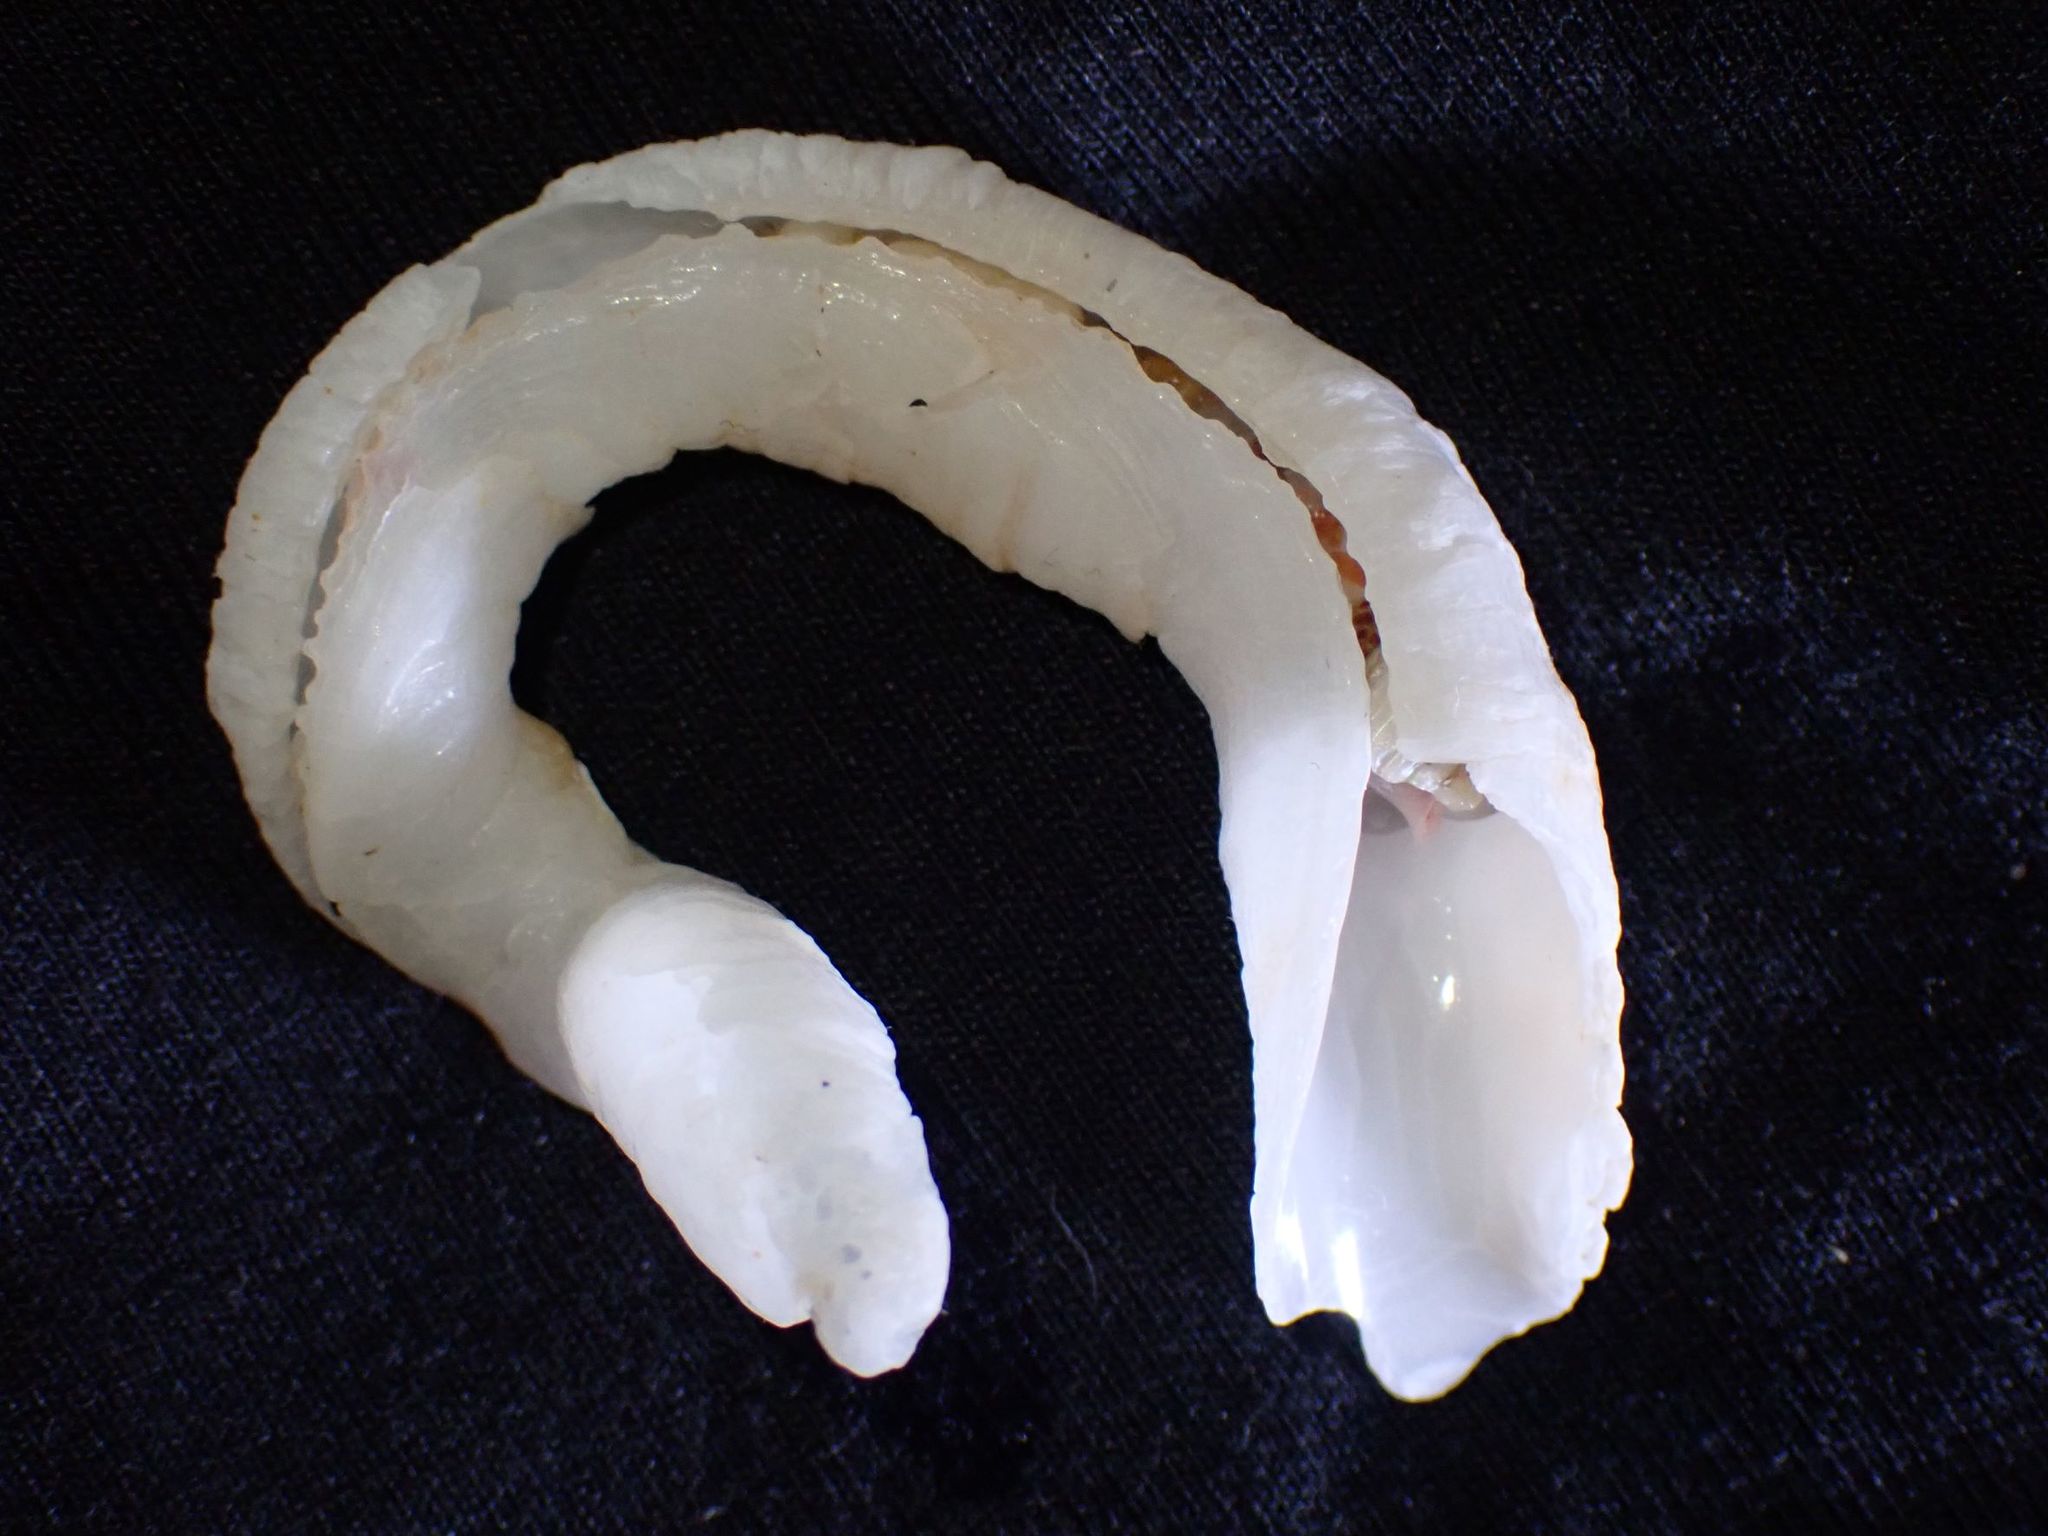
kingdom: Animalia
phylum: Mollusca
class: Gastropoda
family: Siliquariidae
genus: Tenagodus
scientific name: Tenagodus australis
